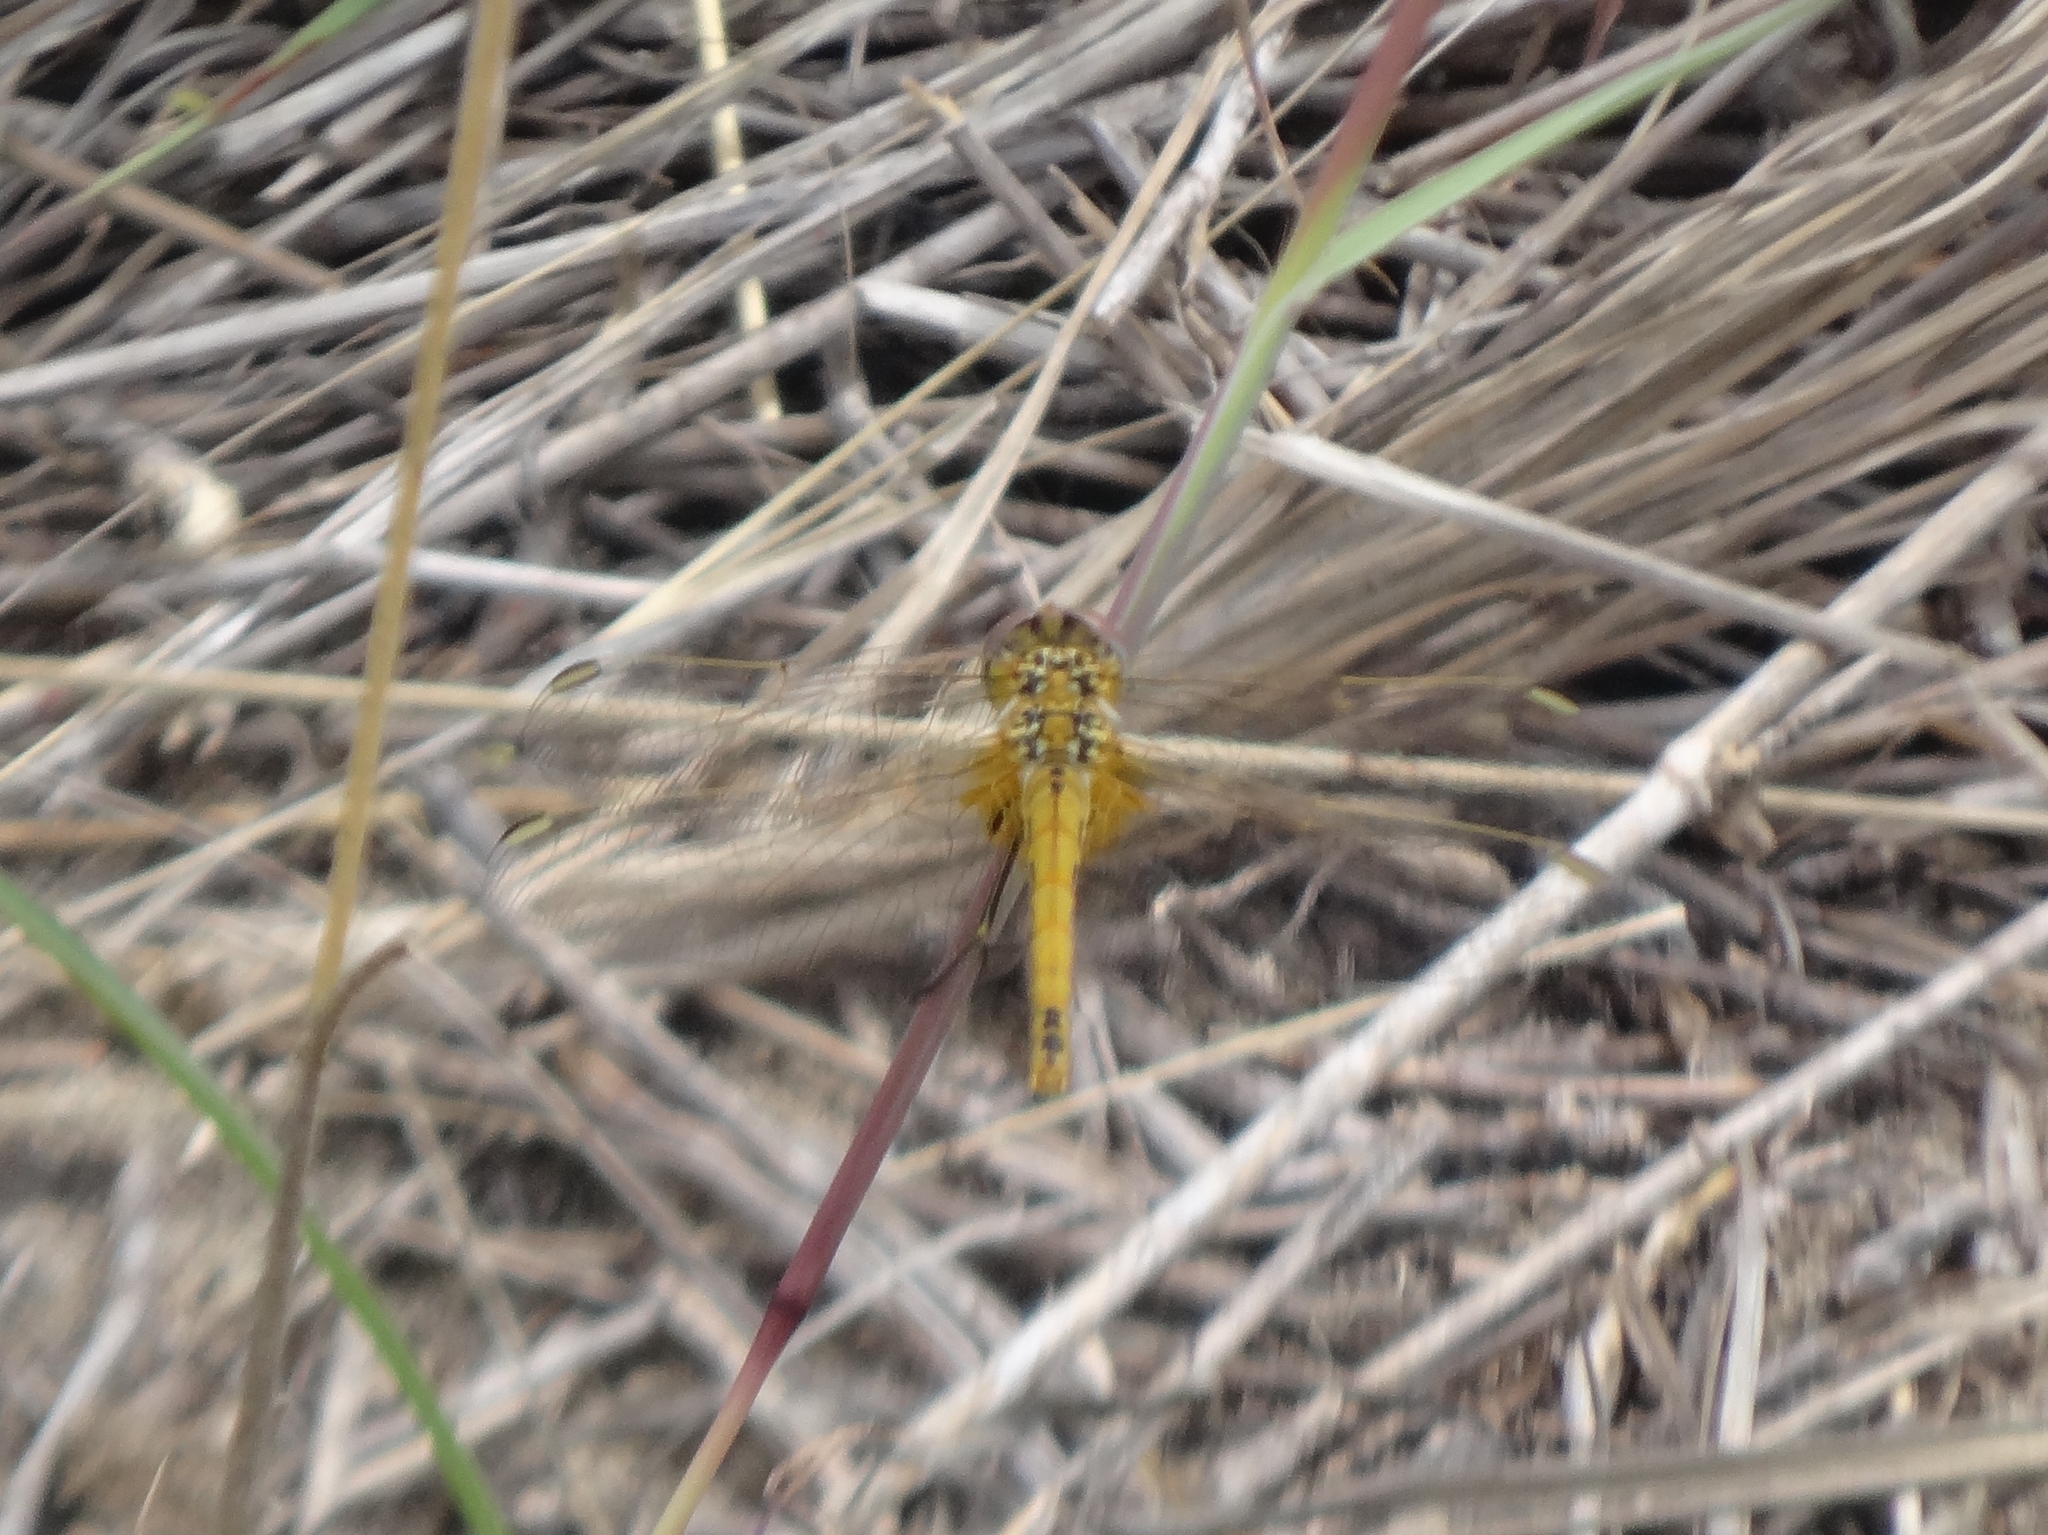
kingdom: Animalia
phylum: Arthropoda
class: Insecta
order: Odonata
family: Libellulidae
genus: Sympetrum
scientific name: Sympetrum fonscolombii
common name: Red-veined darter
